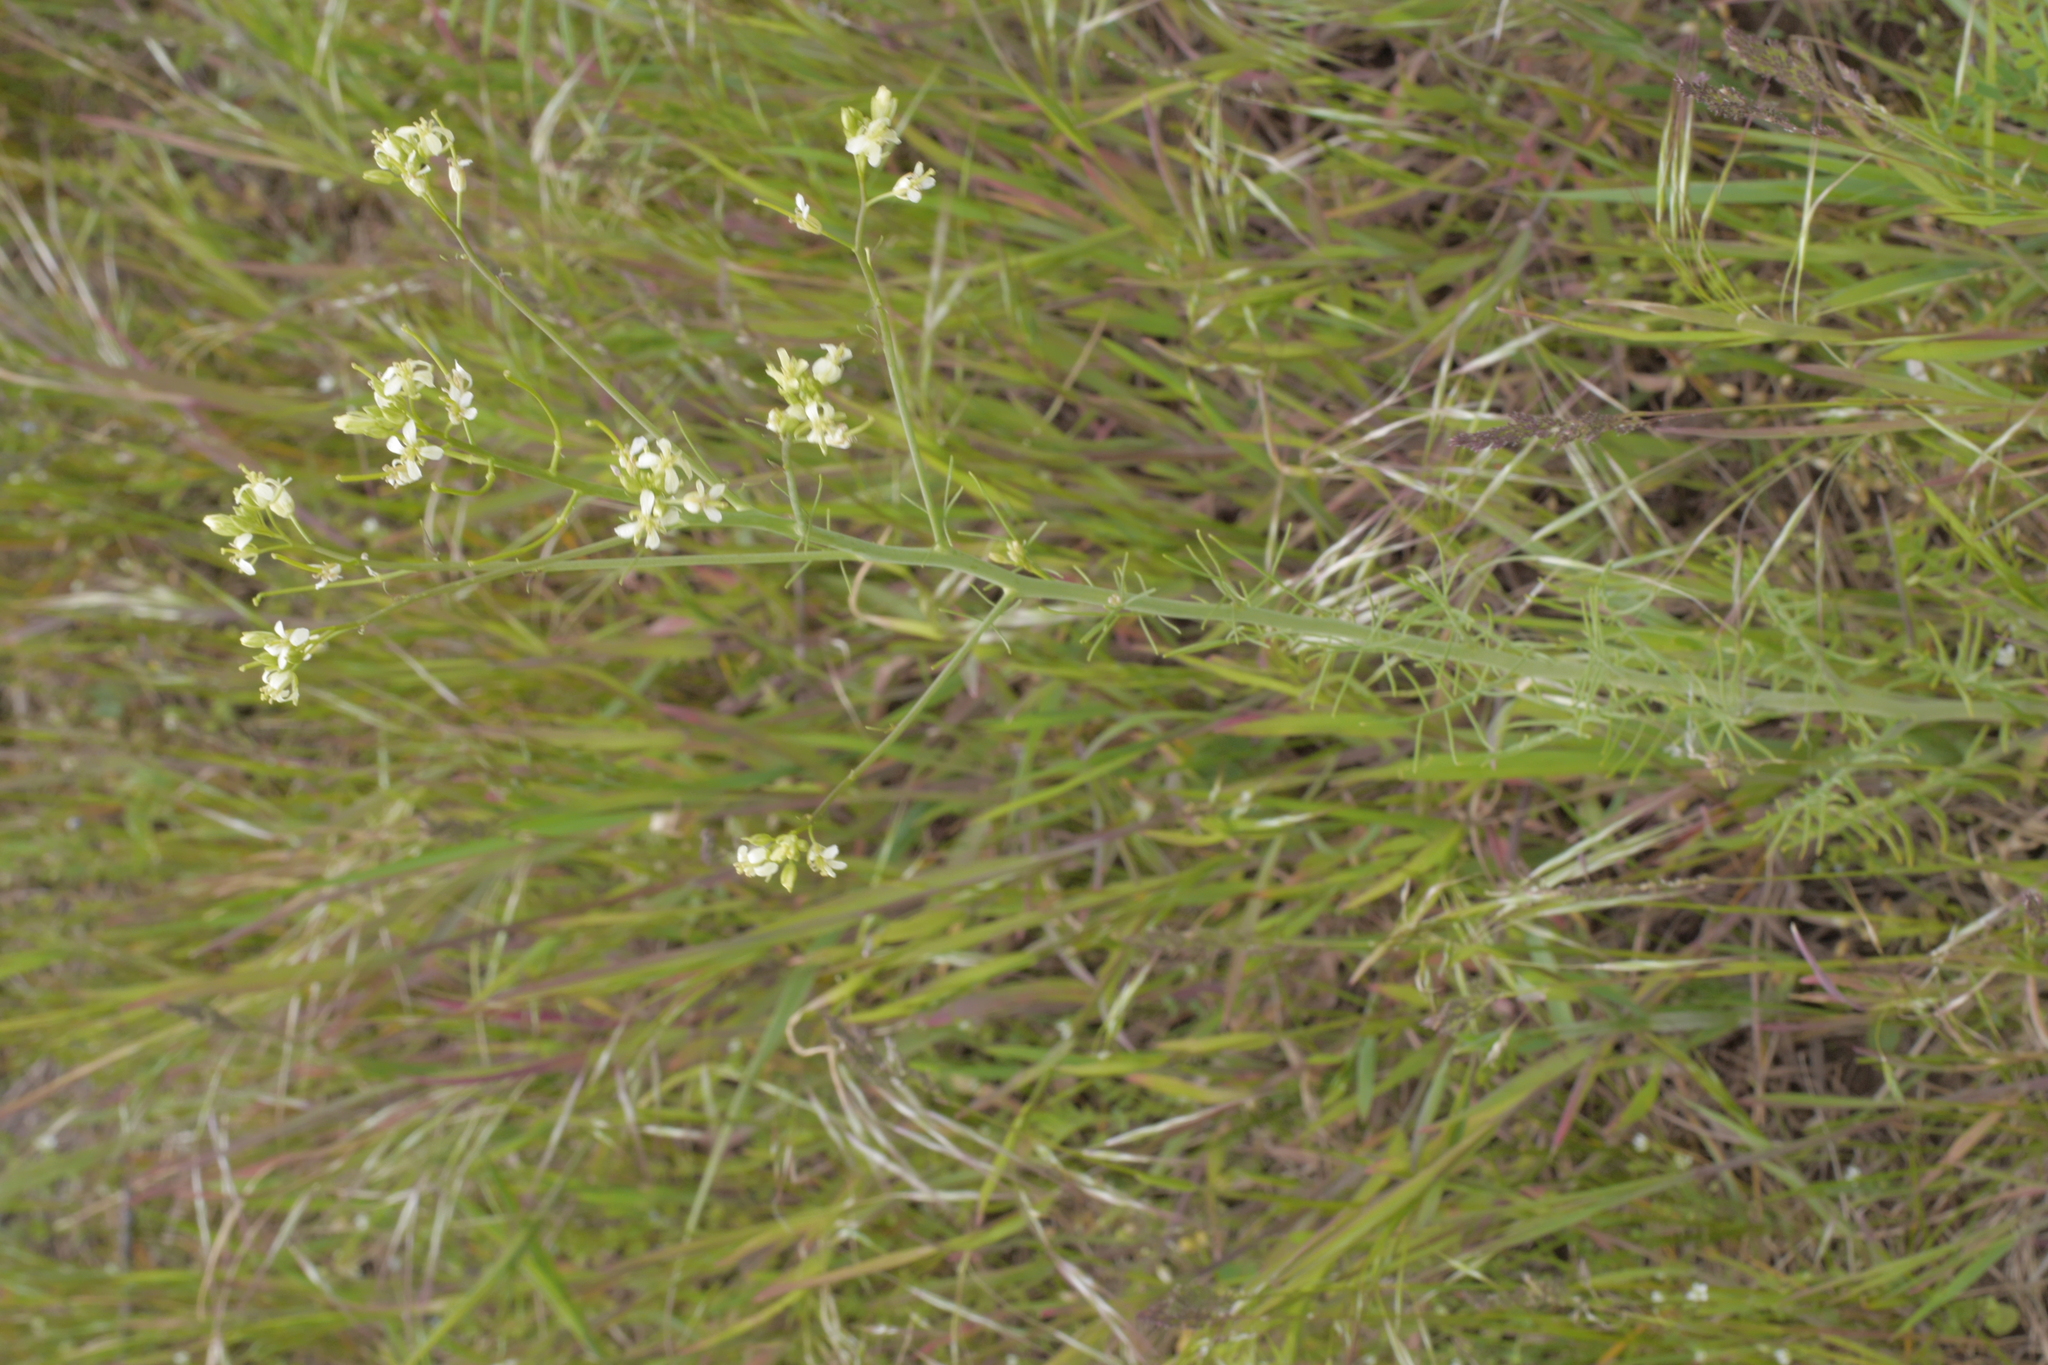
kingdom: Plantae
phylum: Tracheophyta
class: Magnoliopsida
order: Brassicales
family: Brassicaceae
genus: Arabidopsis
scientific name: Arabidopsis thaliana
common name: Thale cress
